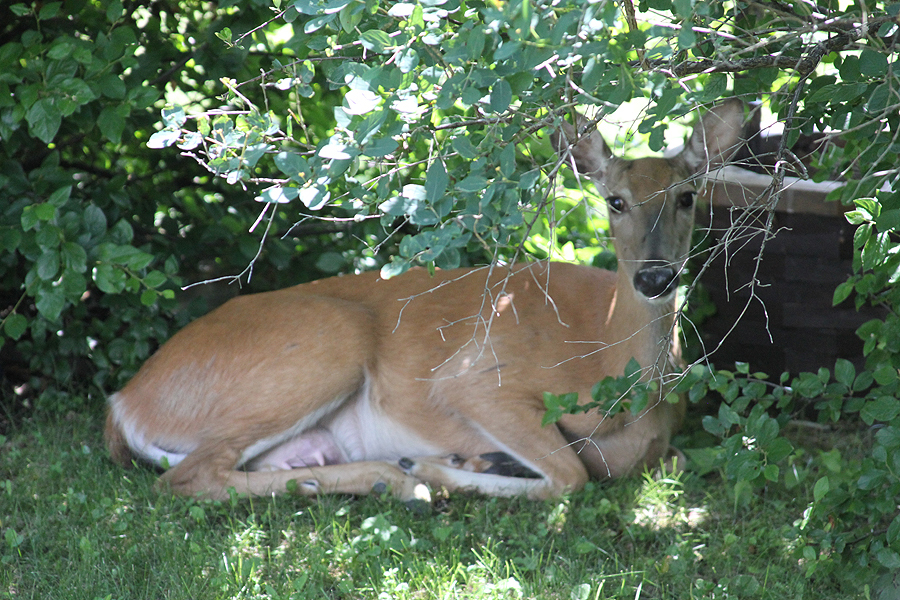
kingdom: Animalia
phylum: Chordata
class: Mammalia
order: Artiodactyla
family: Cervidae
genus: Odocoileus
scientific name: Odocoileus virginianus
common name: White-tailed deer
